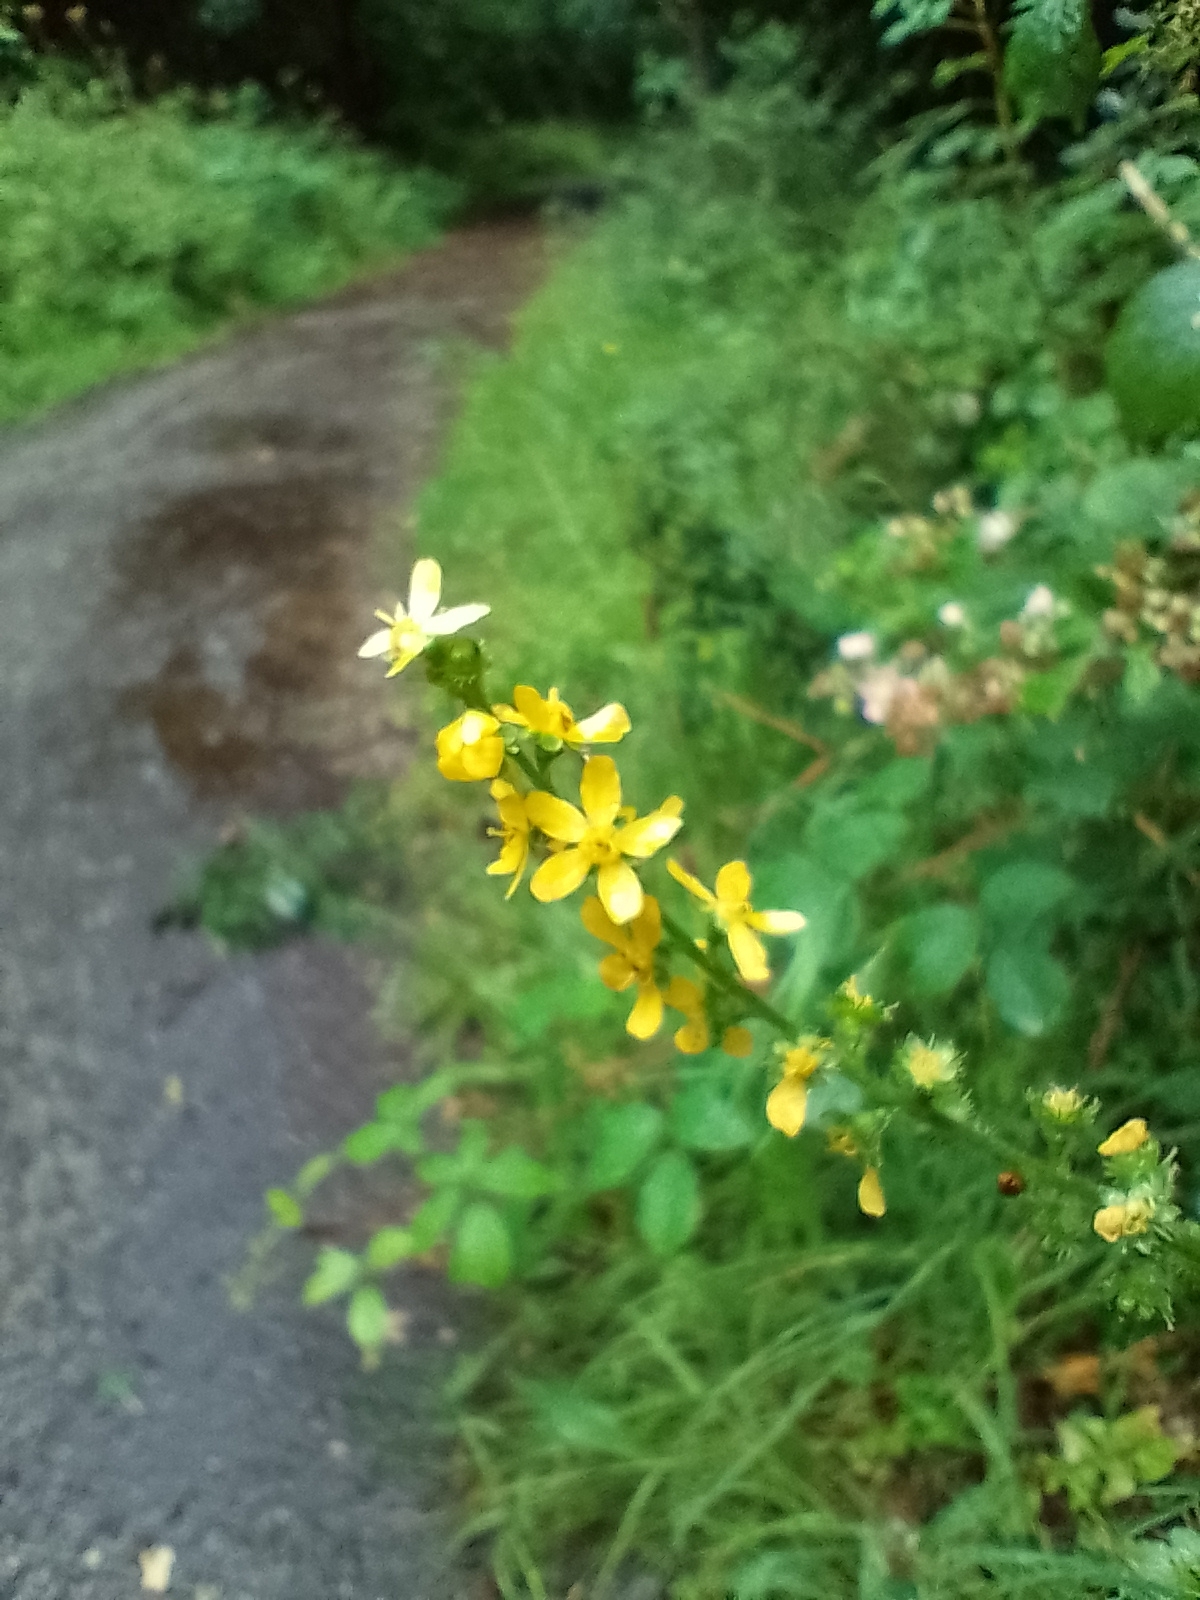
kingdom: Plantae
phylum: Tracheophyta
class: Magnoliopsida
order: Rosales
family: Rosaceae
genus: Agrimonia
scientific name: Agrimonia eupatoria
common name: Agrimony
